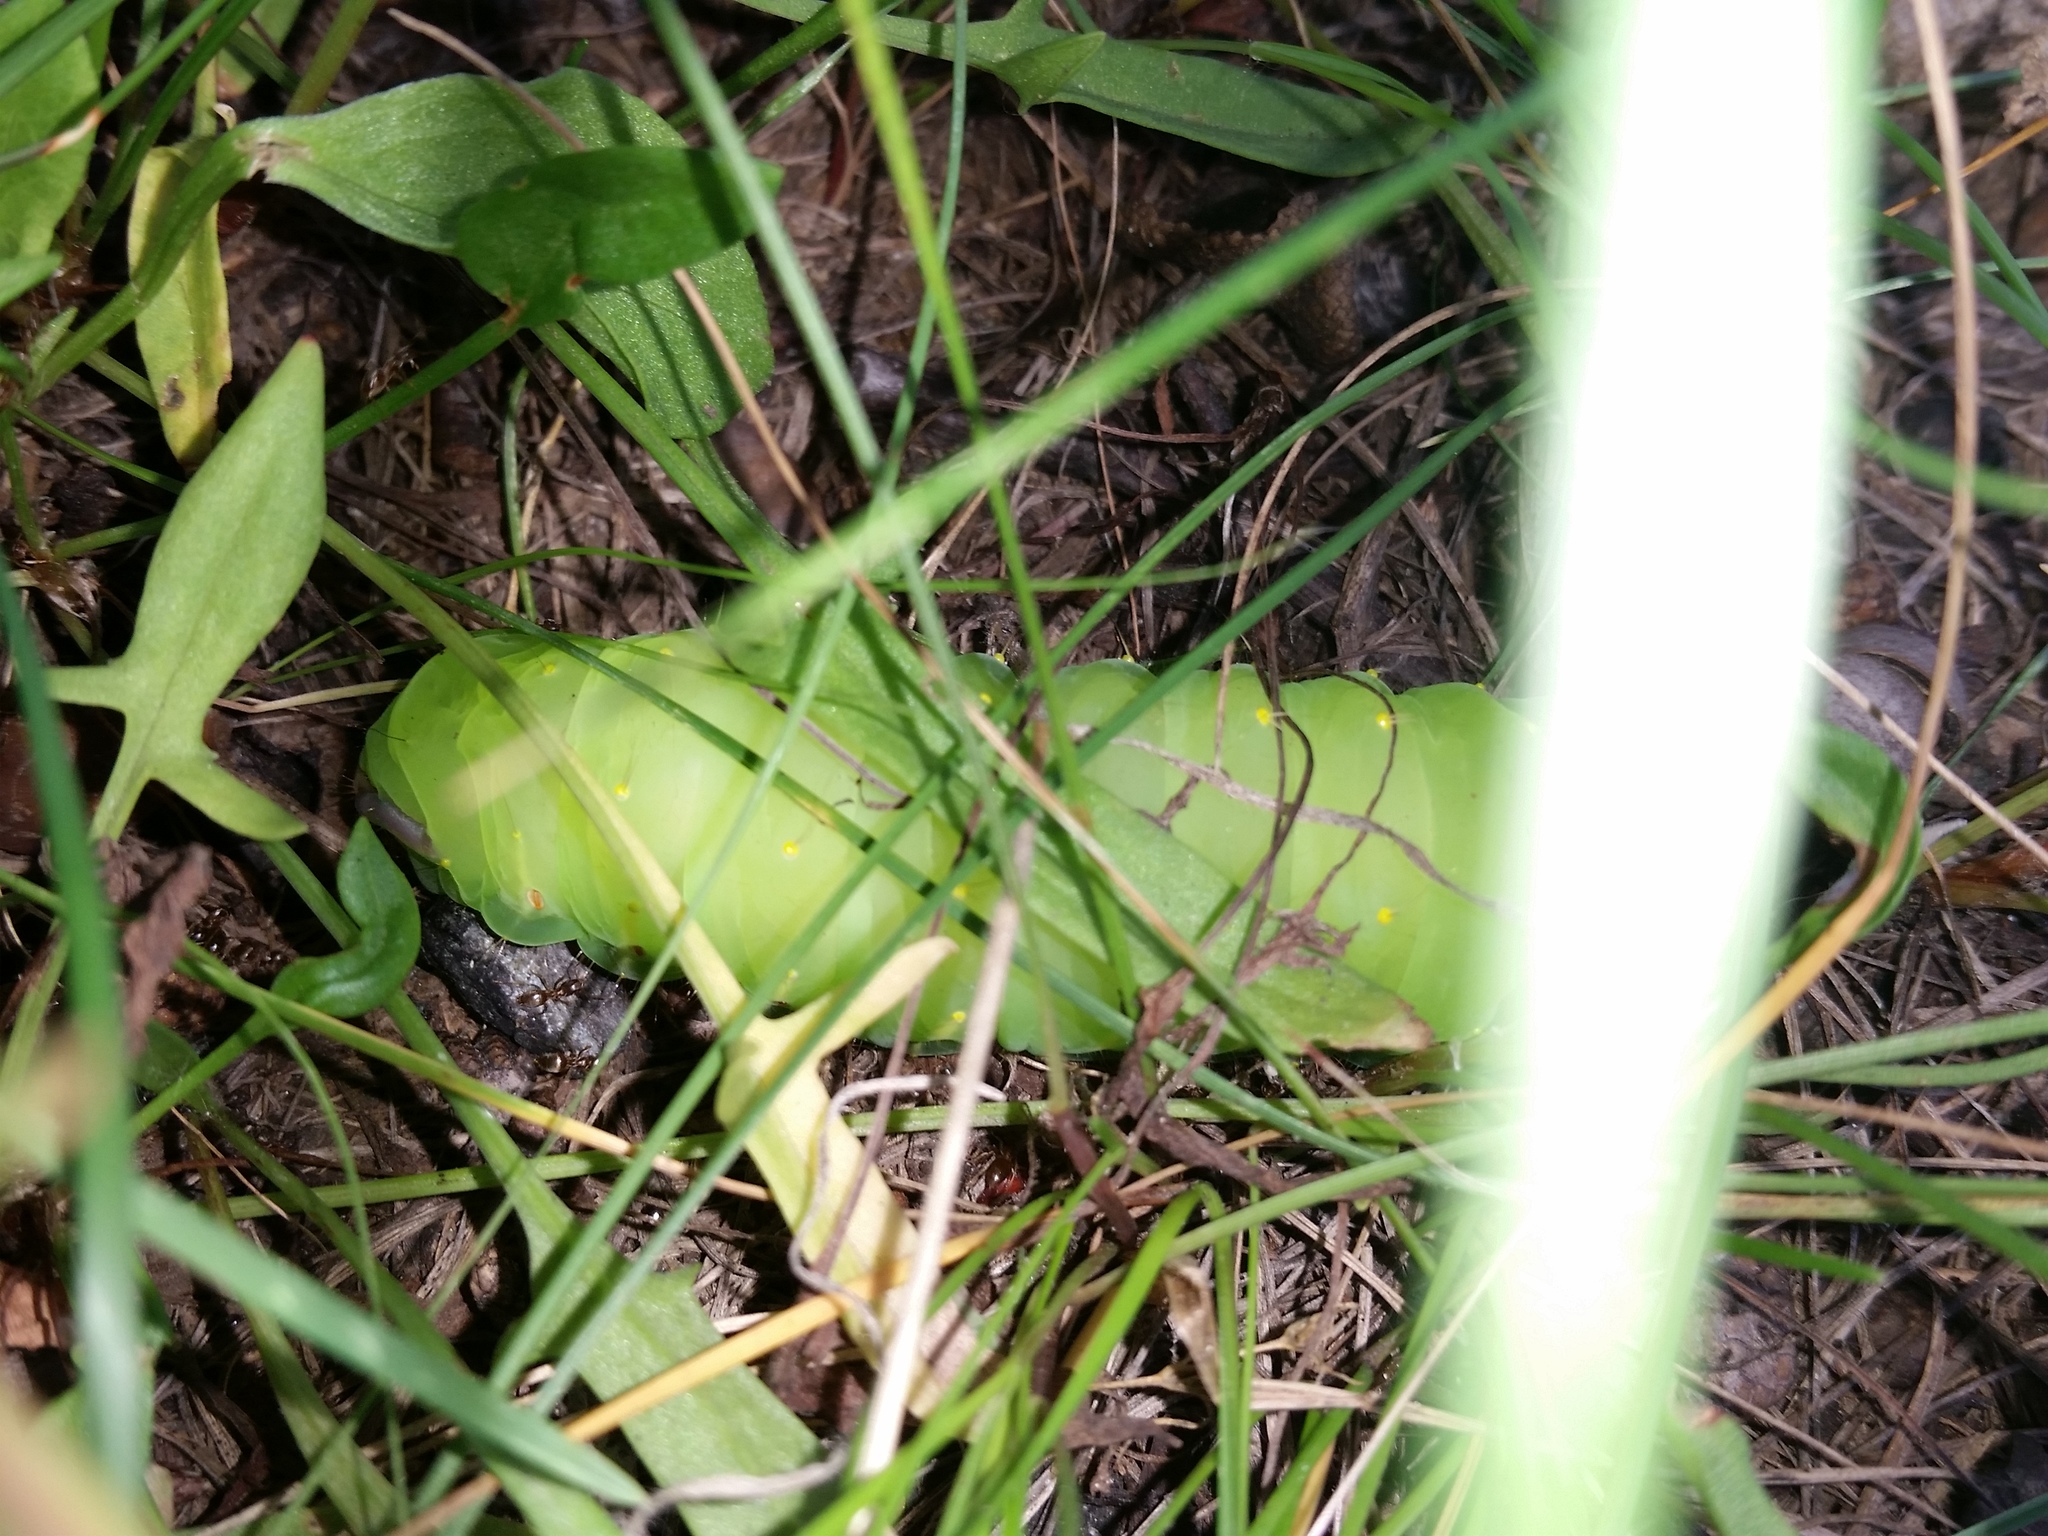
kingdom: Animalia
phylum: Arthropoda
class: Insecta
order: Lepidoptera
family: Saturniidae
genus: Antheraea
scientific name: Antheraea polyphemus
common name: Polyphemus moth
